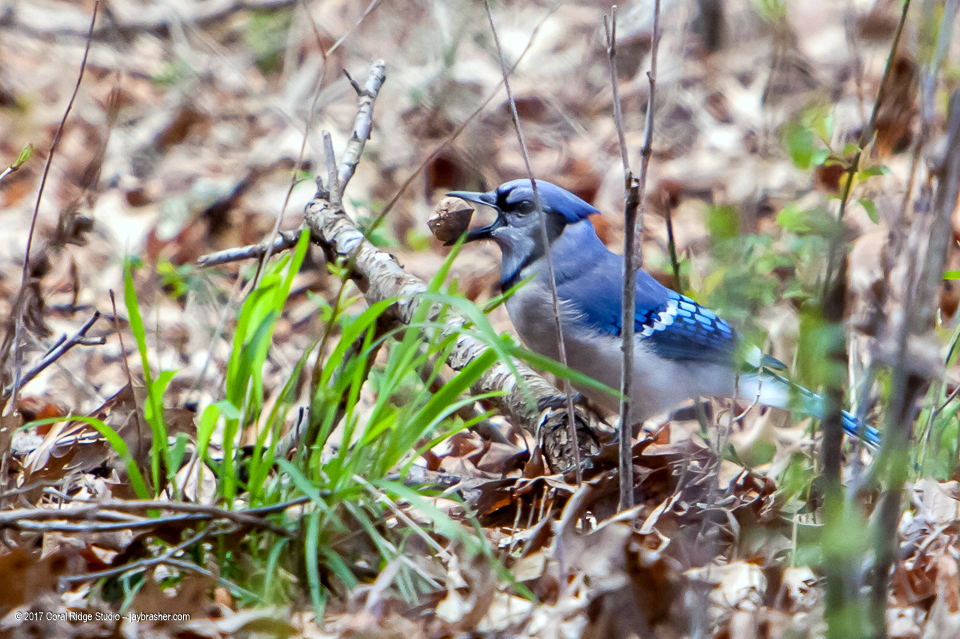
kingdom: Animalia
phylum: Chordata
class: Aves
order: Passeriformes
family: Corvidae
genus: Cyanocitta
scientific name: Cyanocitta cristata
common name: Blue jay
